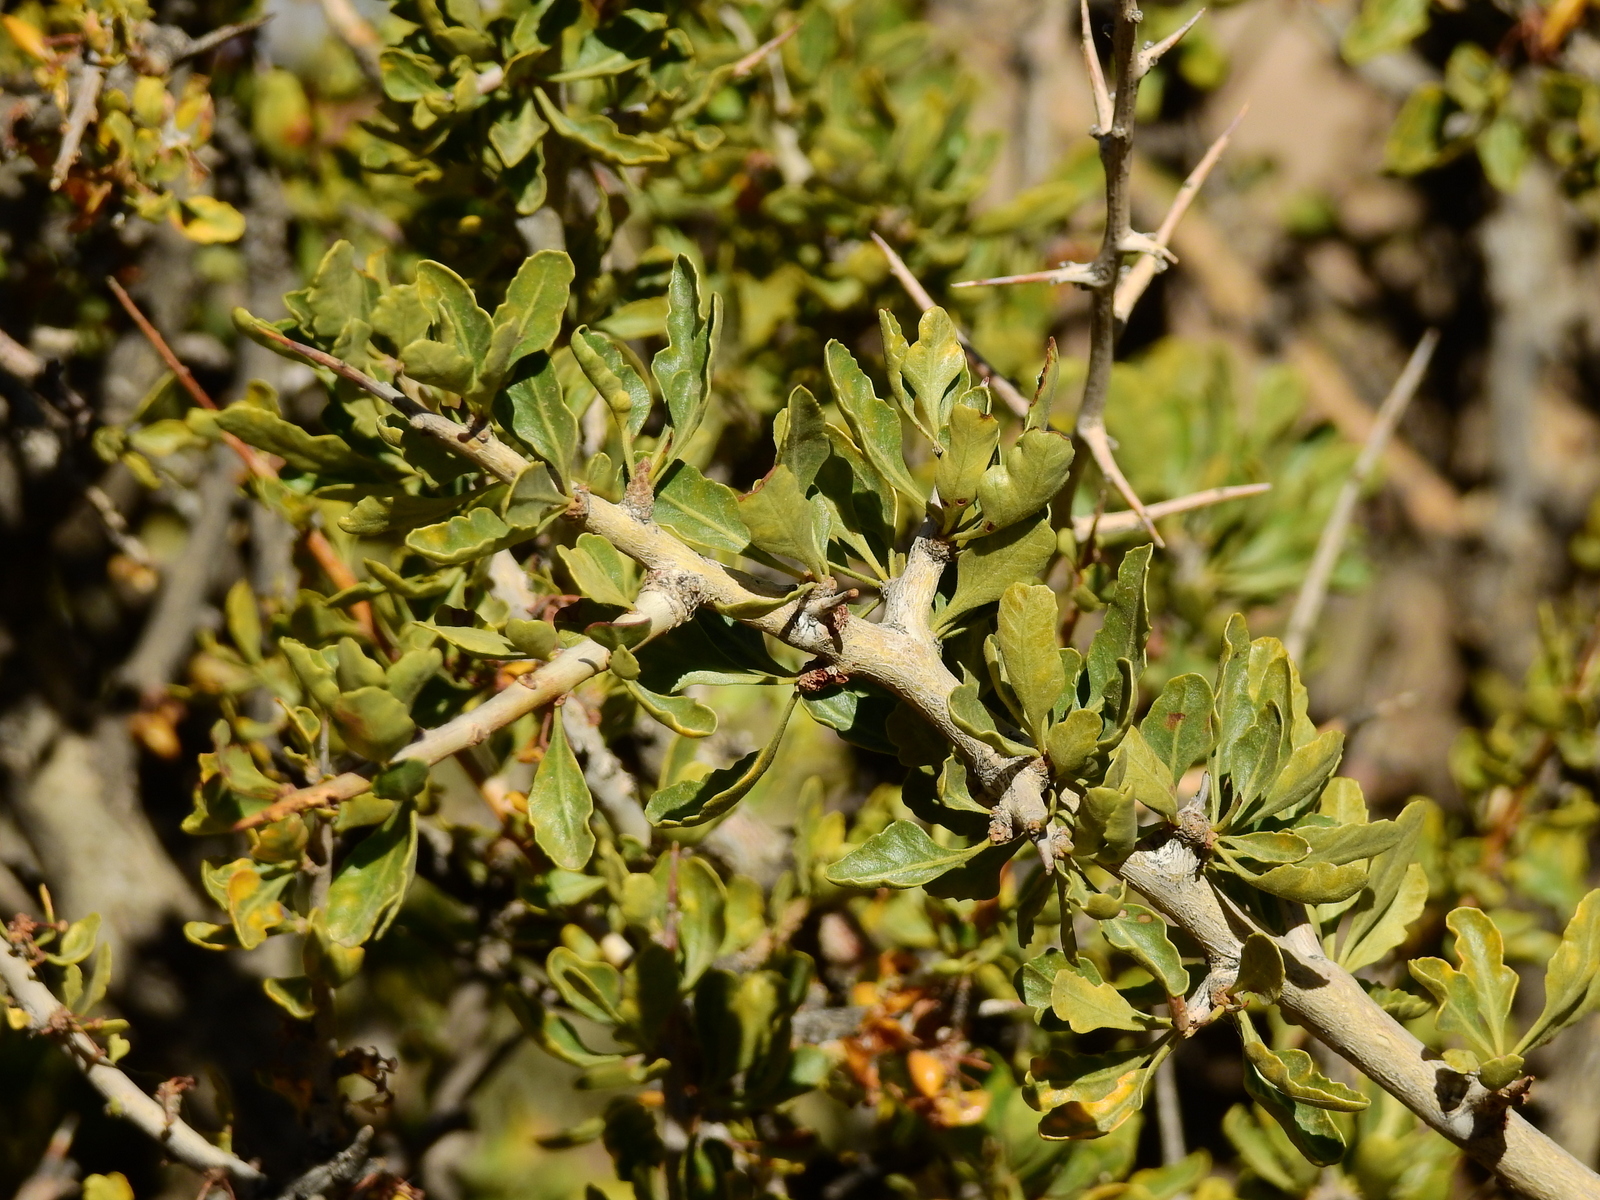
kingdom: Plantae
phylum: Tracheophyta
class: Magnoliopsida
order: Sapindales
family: Anacardiaceae
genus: Schinus
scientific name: Schinus odonellii
